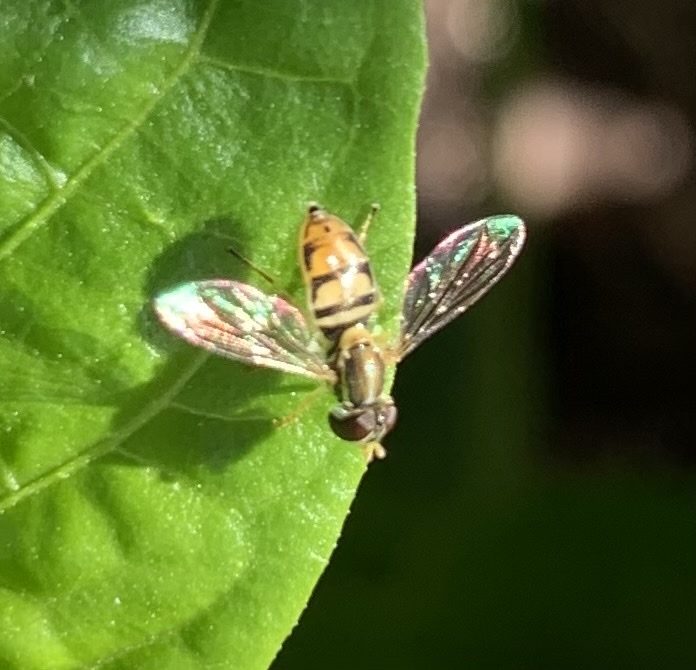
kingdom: Animalia
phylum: Arthropoda
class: Insecta
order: Diptera
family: Syrphidae
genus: Toxomerus
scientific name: Toxomerus marginatus
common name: Syrphid fly
